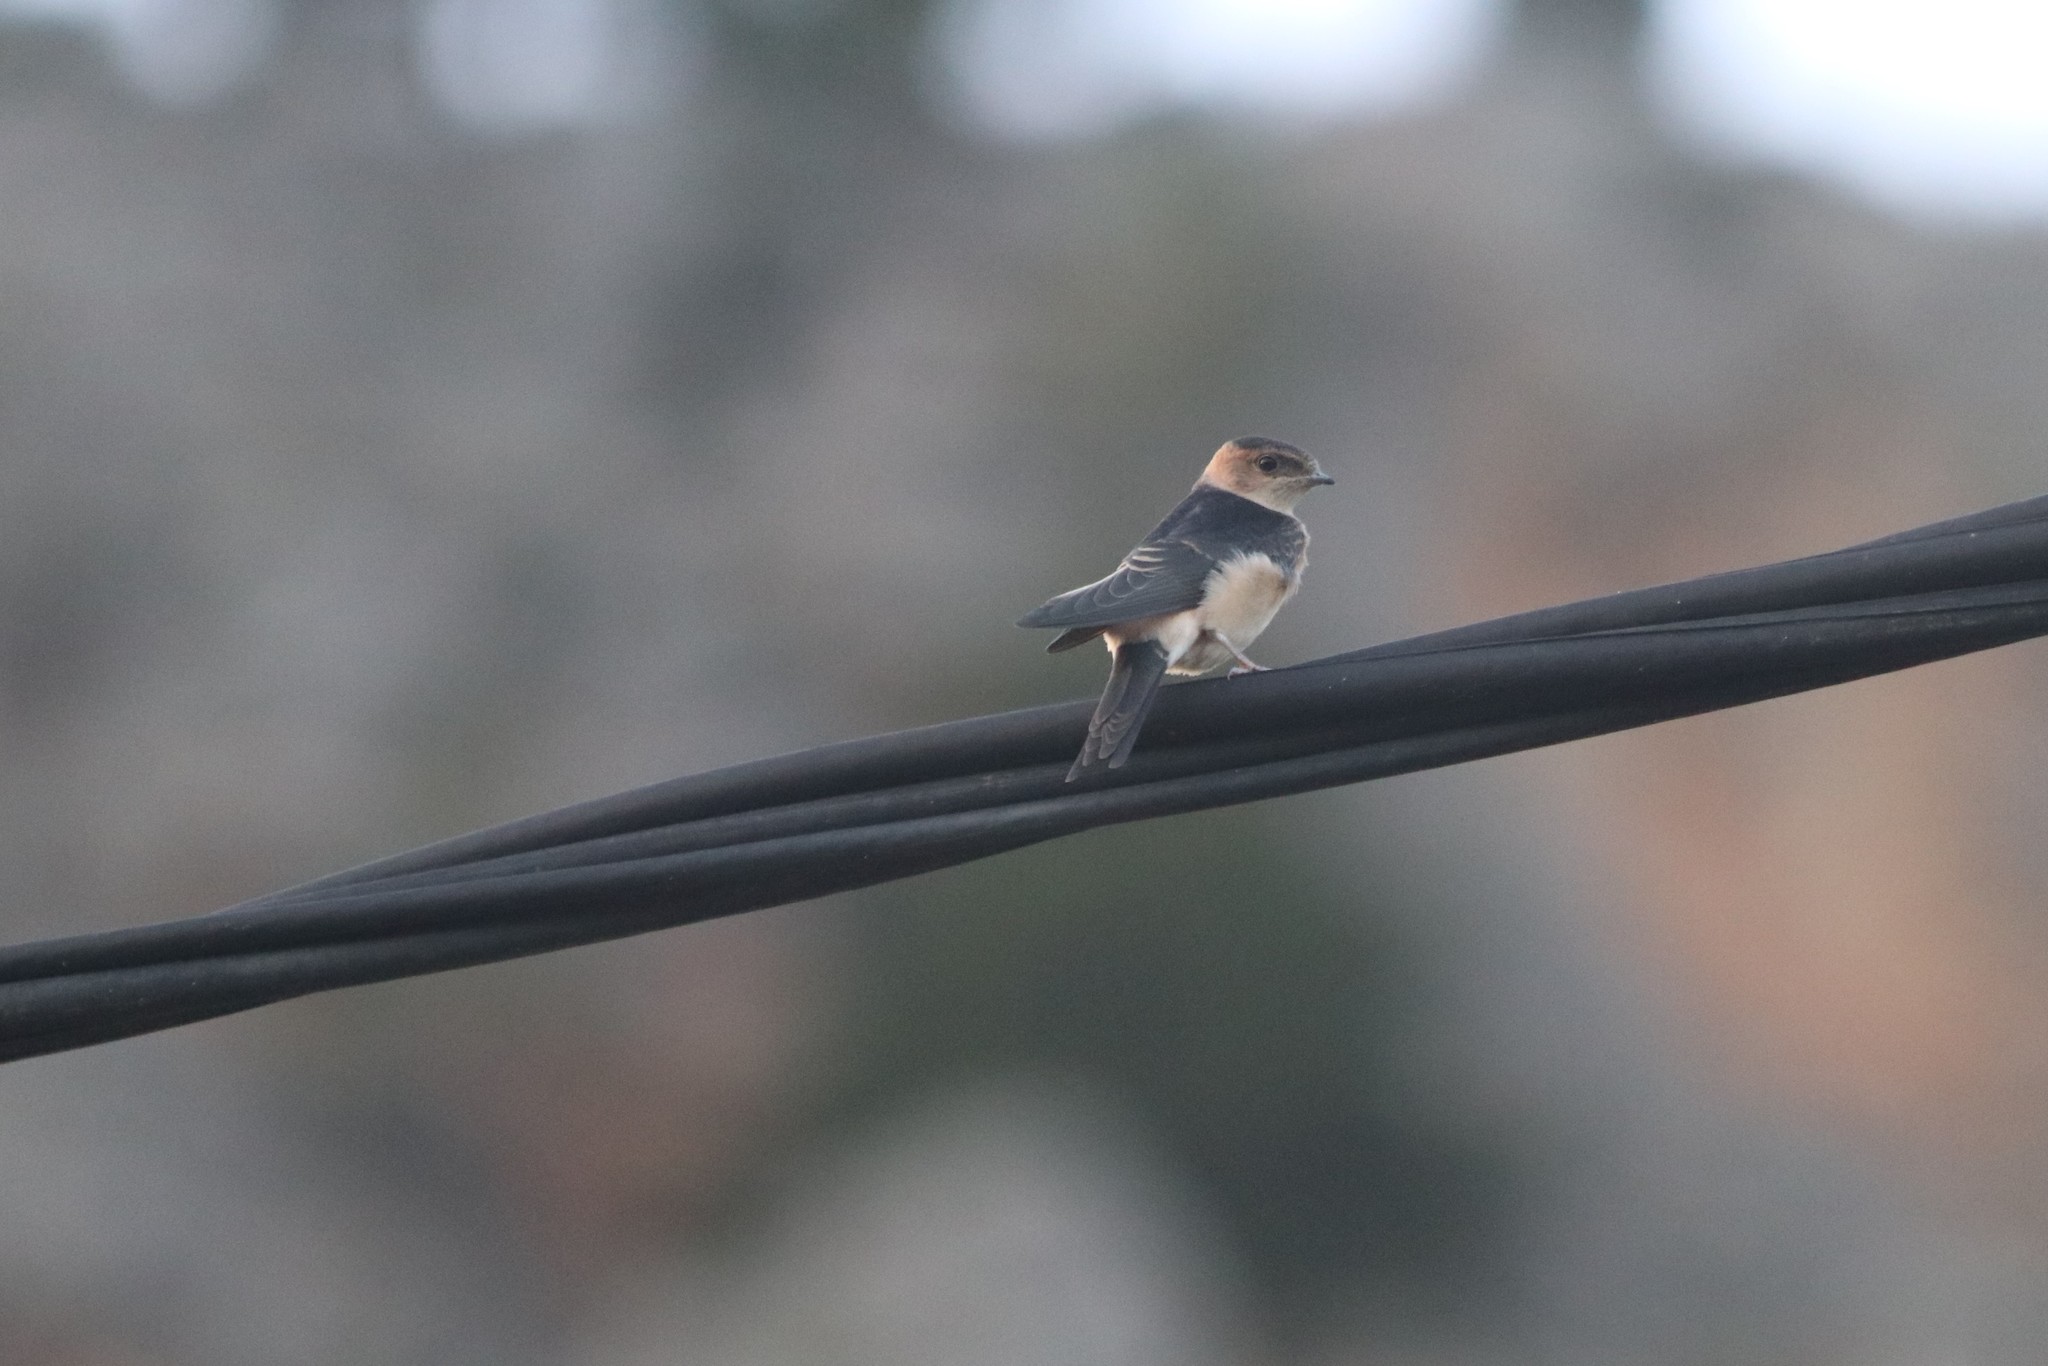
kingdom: Animalia
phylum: Chordata
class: Aves
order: Passeriformes
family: Hirundinidae
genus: Cecropis
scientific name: Cecropis daurica
